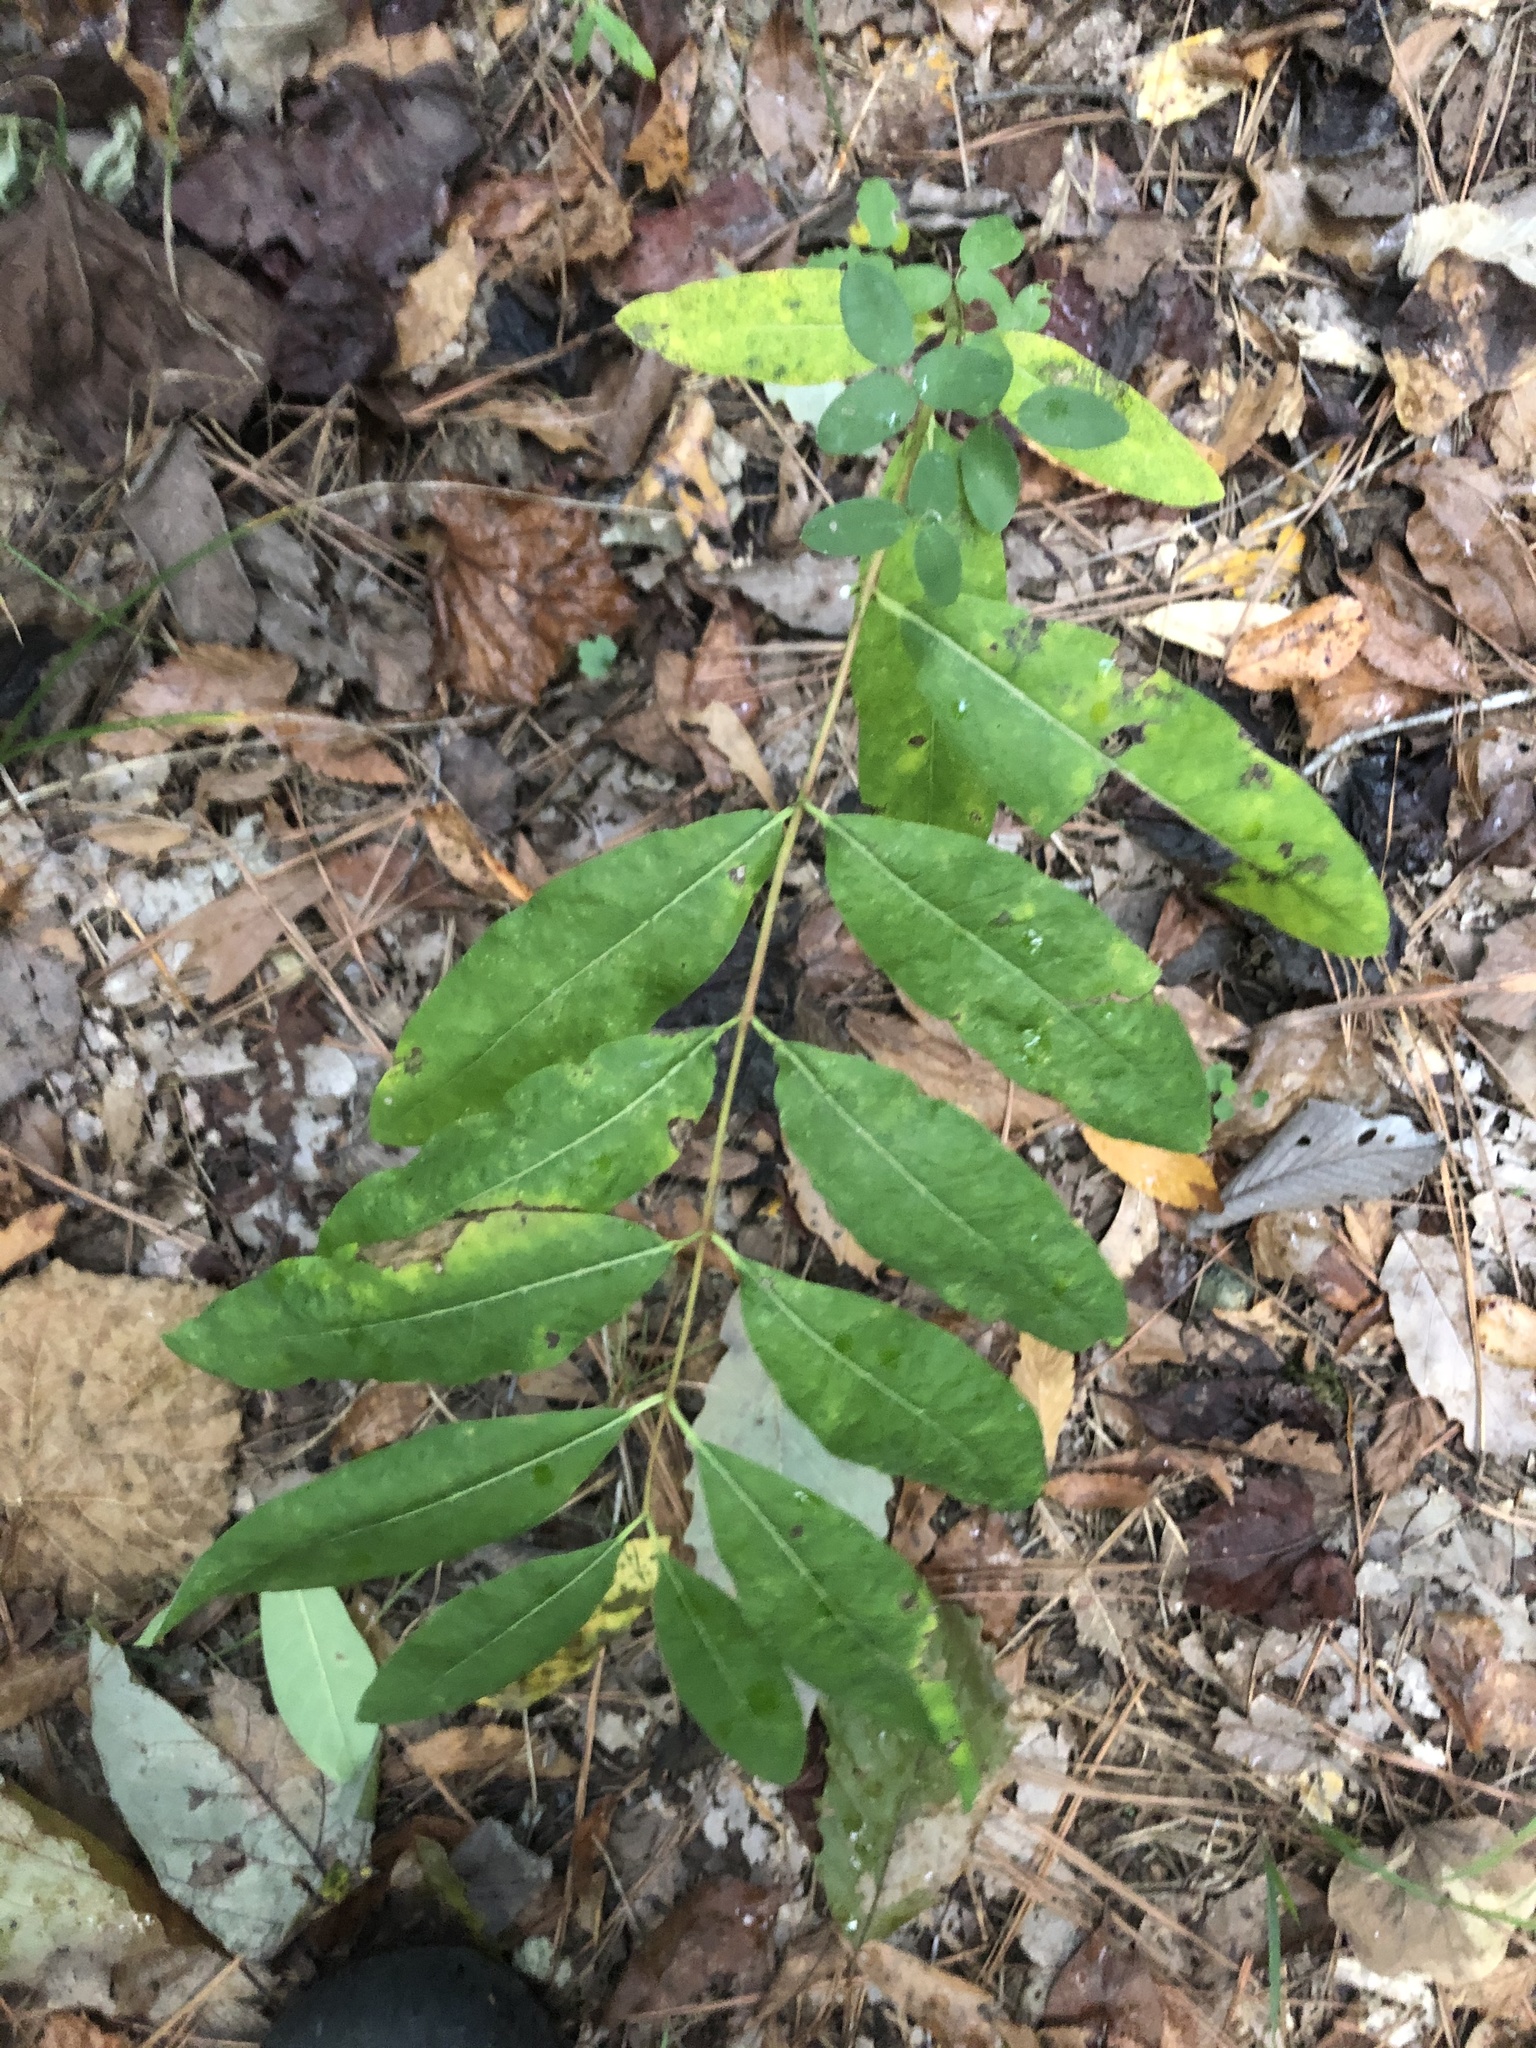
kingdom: Plantae
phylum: Tracheophyta
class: Magnoliopsida
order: Gentianales
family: Apocynaceae
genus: Apocynum
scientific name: Apocynum cannabinum
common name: Hemp dogbane
